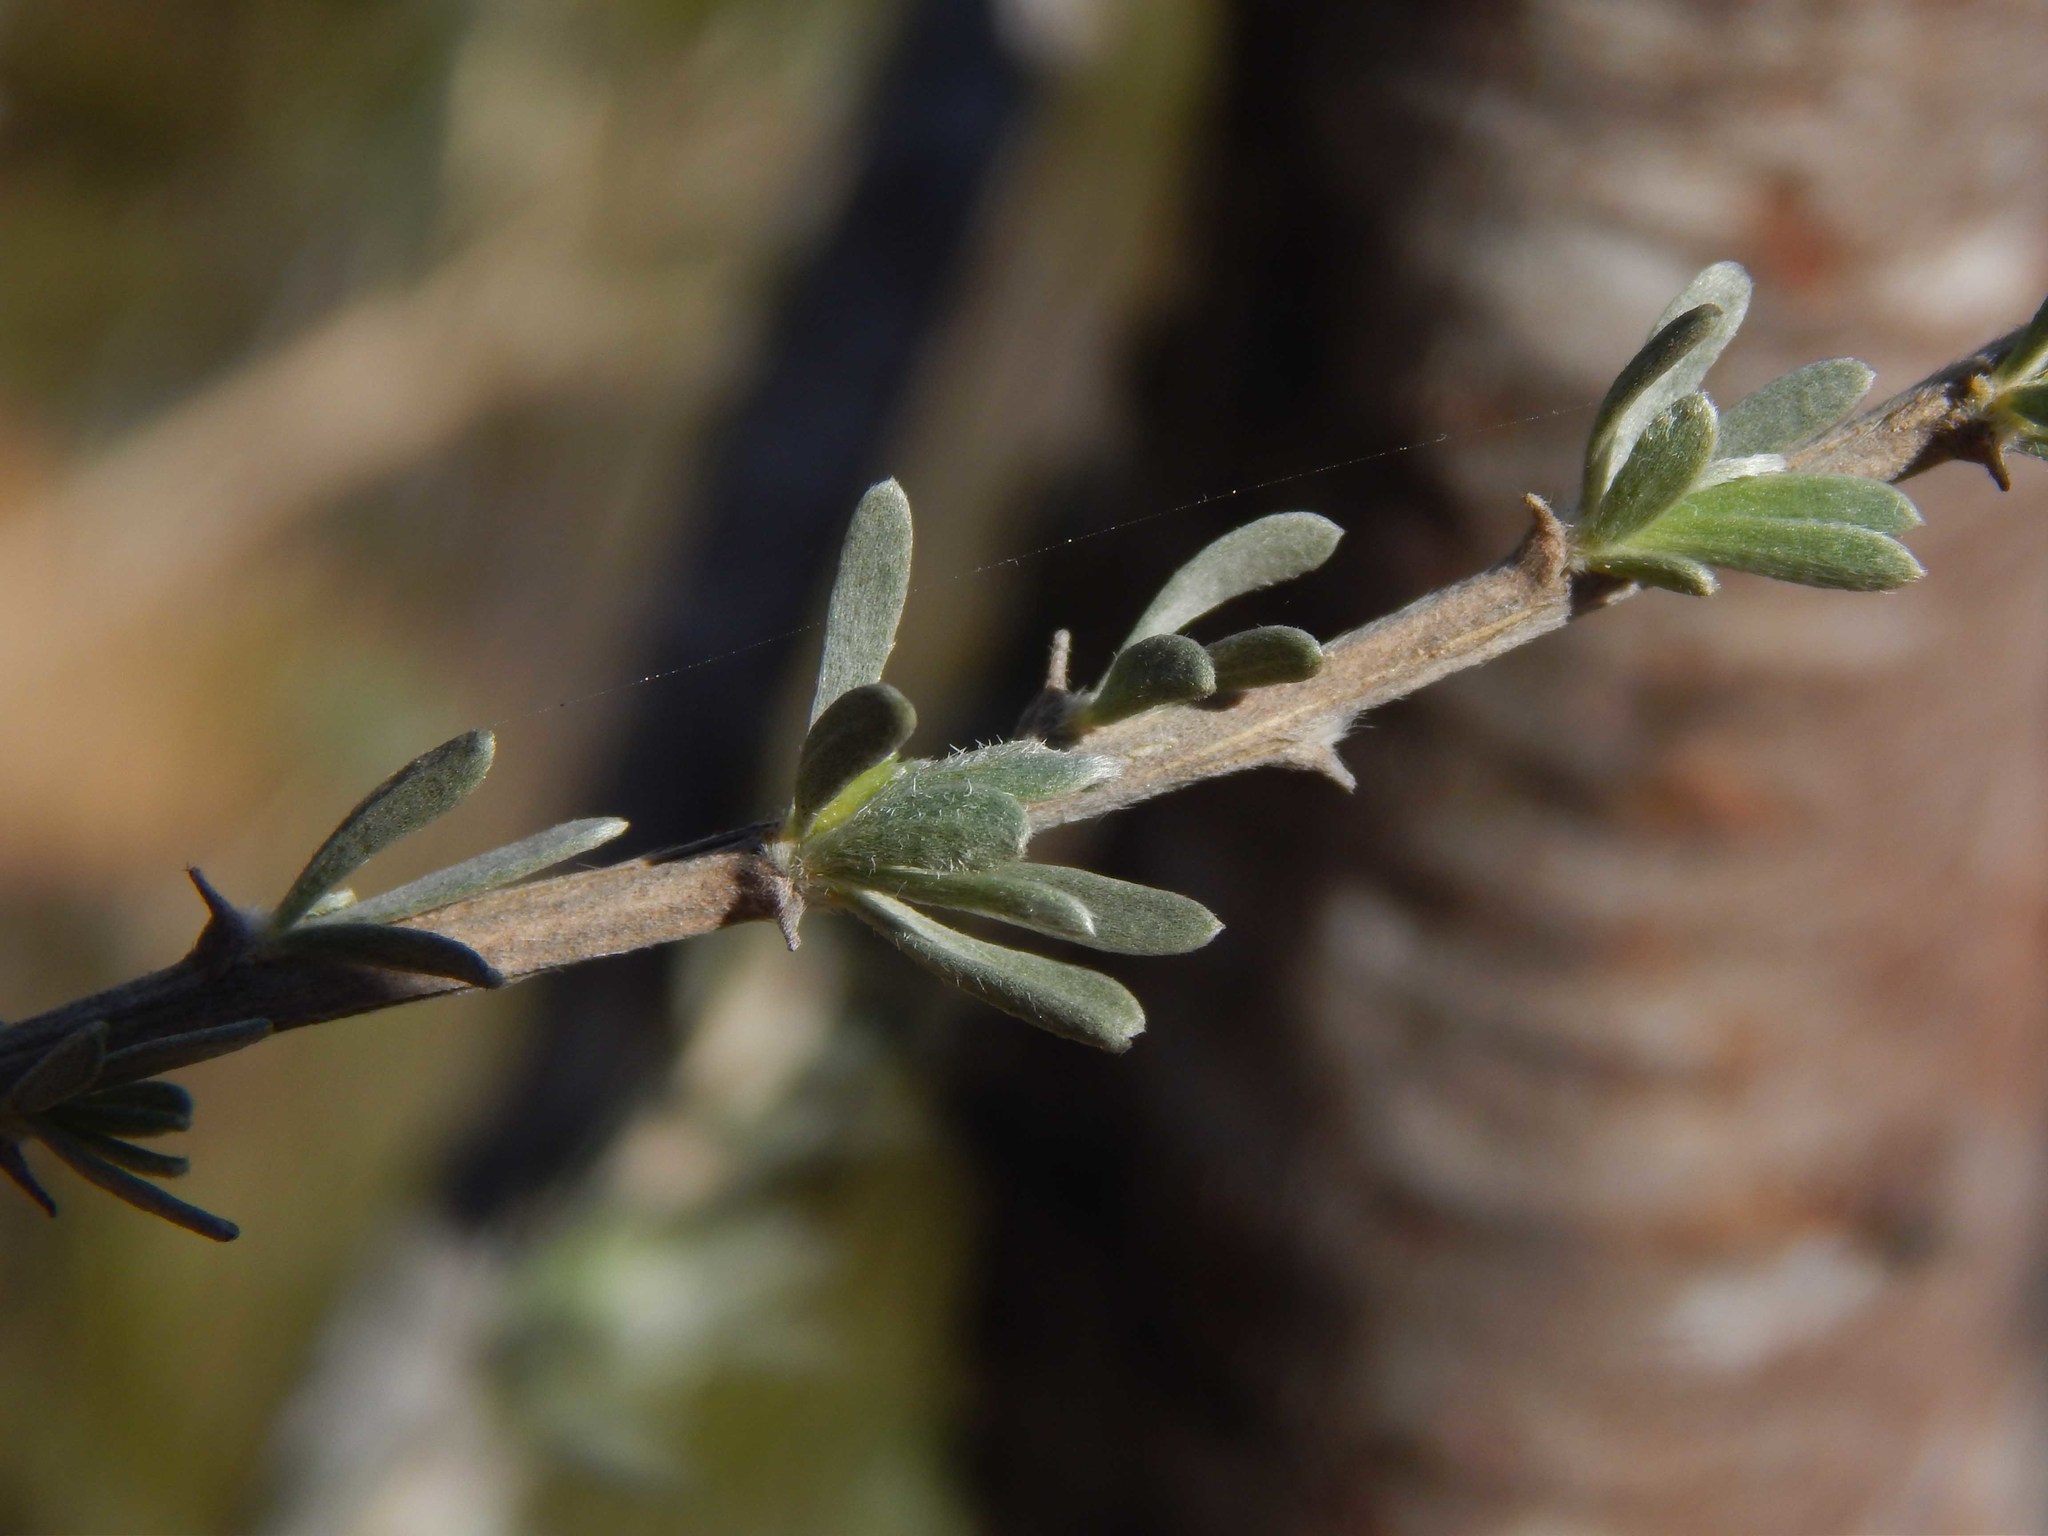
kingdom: Plantae
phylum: Tracheophyta
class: Magnoliopsida
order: Fabales
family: Fabaceae
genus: Aspalathus
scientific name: Aspalathus ternata
